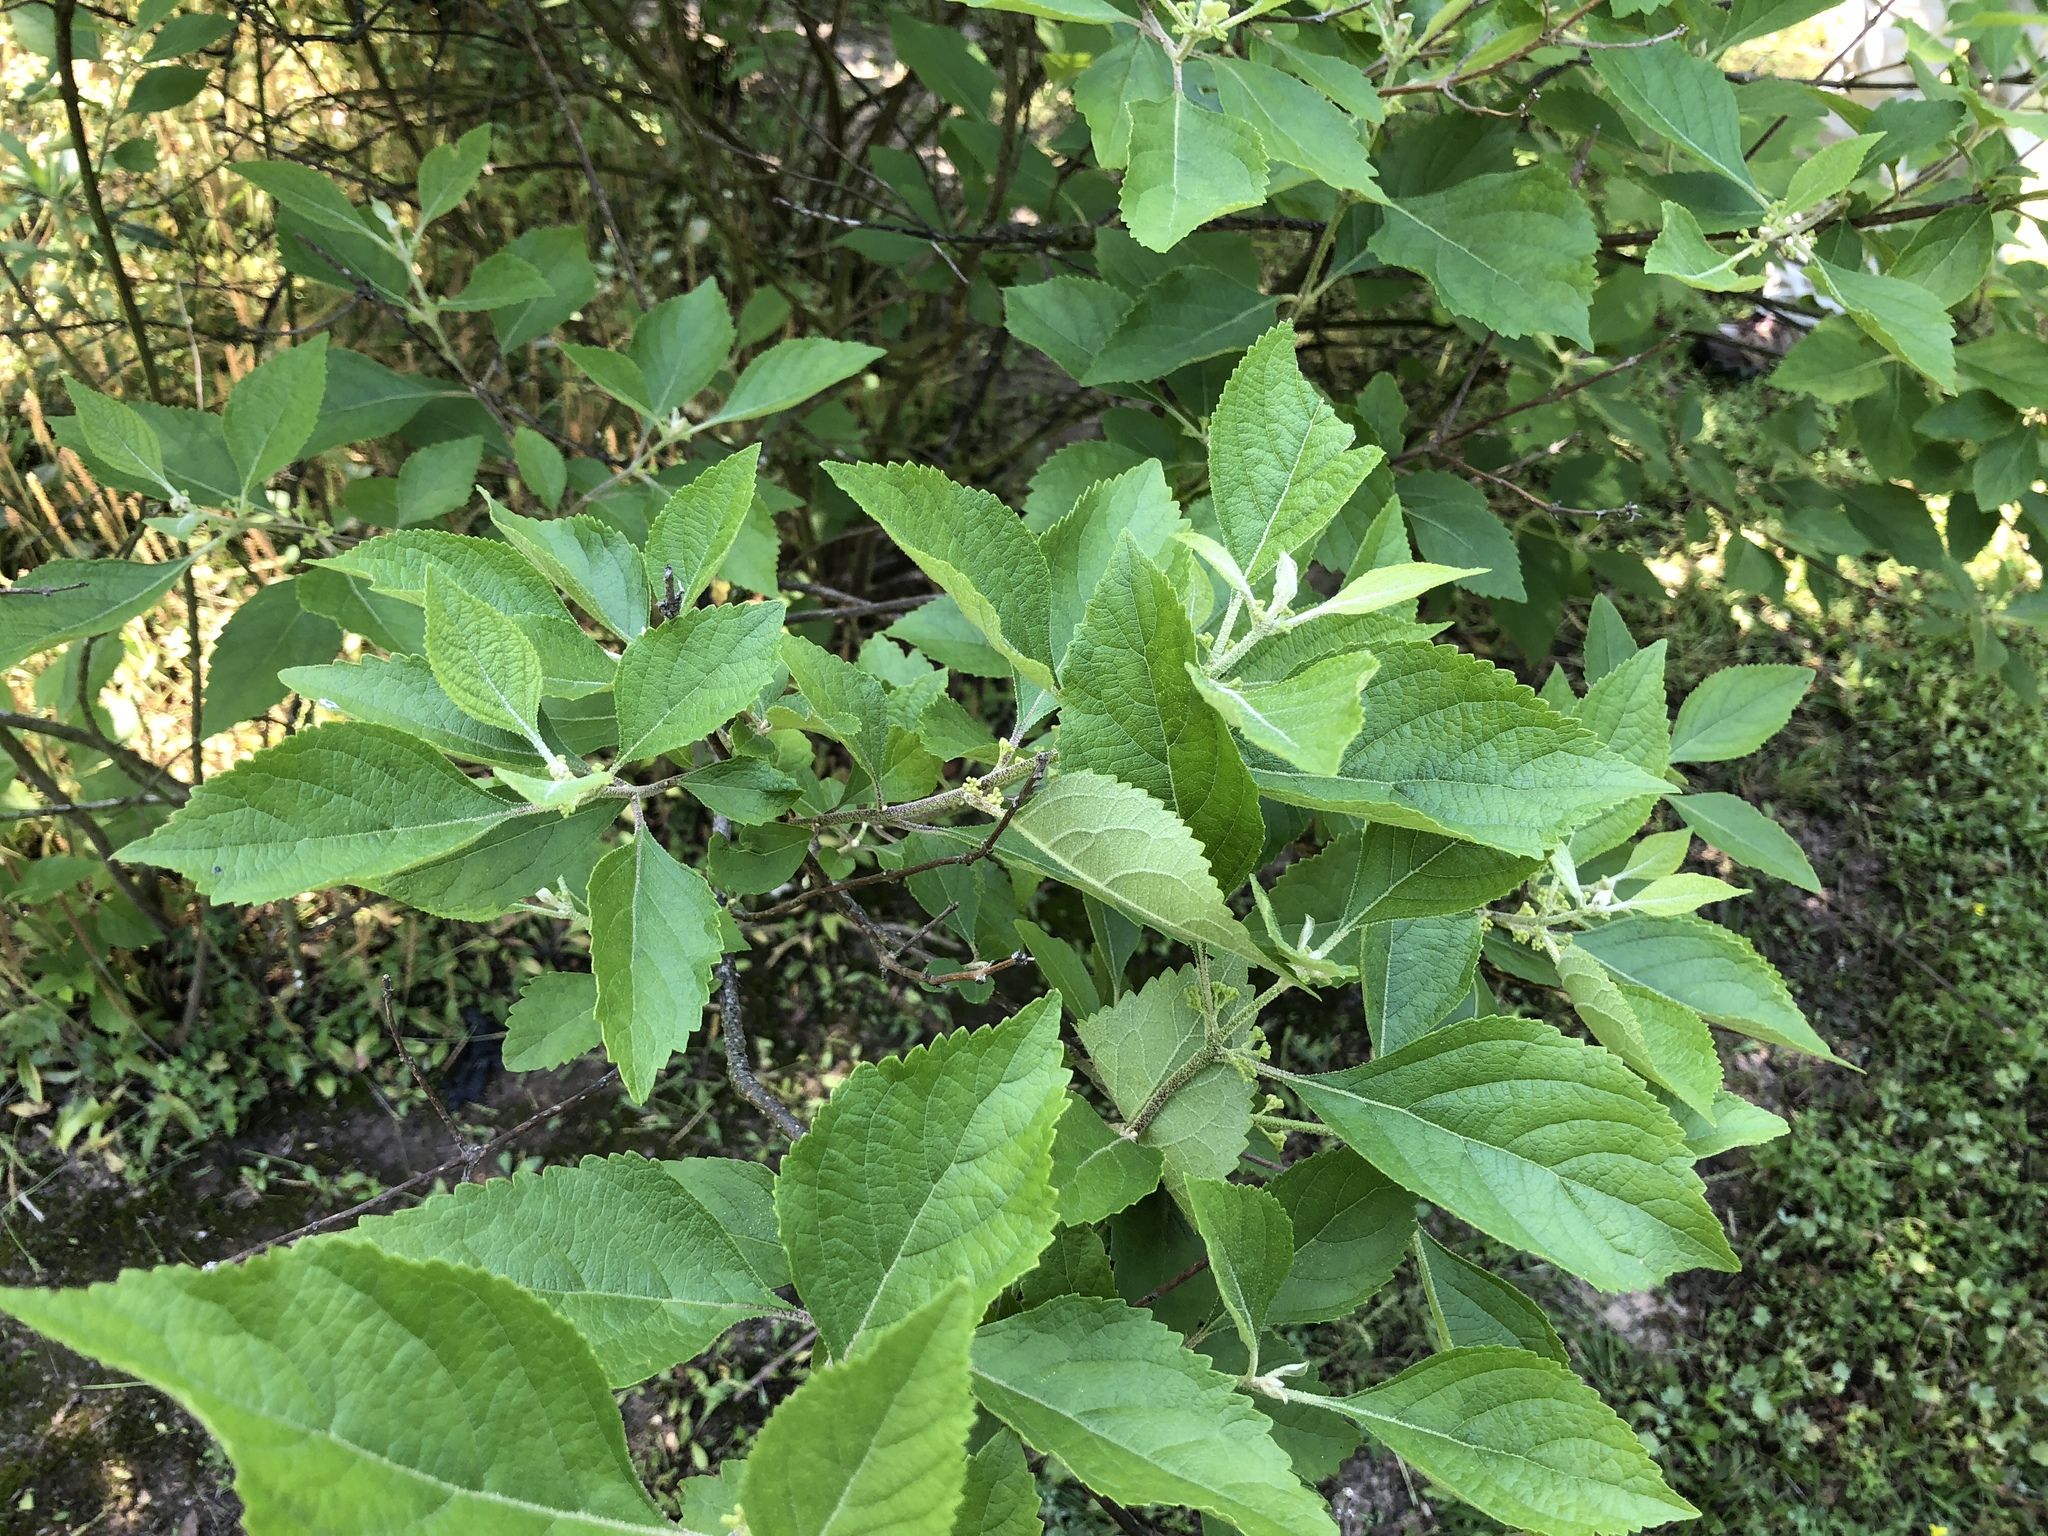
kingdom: Plantae
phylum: Tracheophyta
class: Magnoliopsida
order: Lamiales
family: Lamiaceae
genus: Callicarpa
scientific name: Callicarpa americana
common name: American beautyberry
